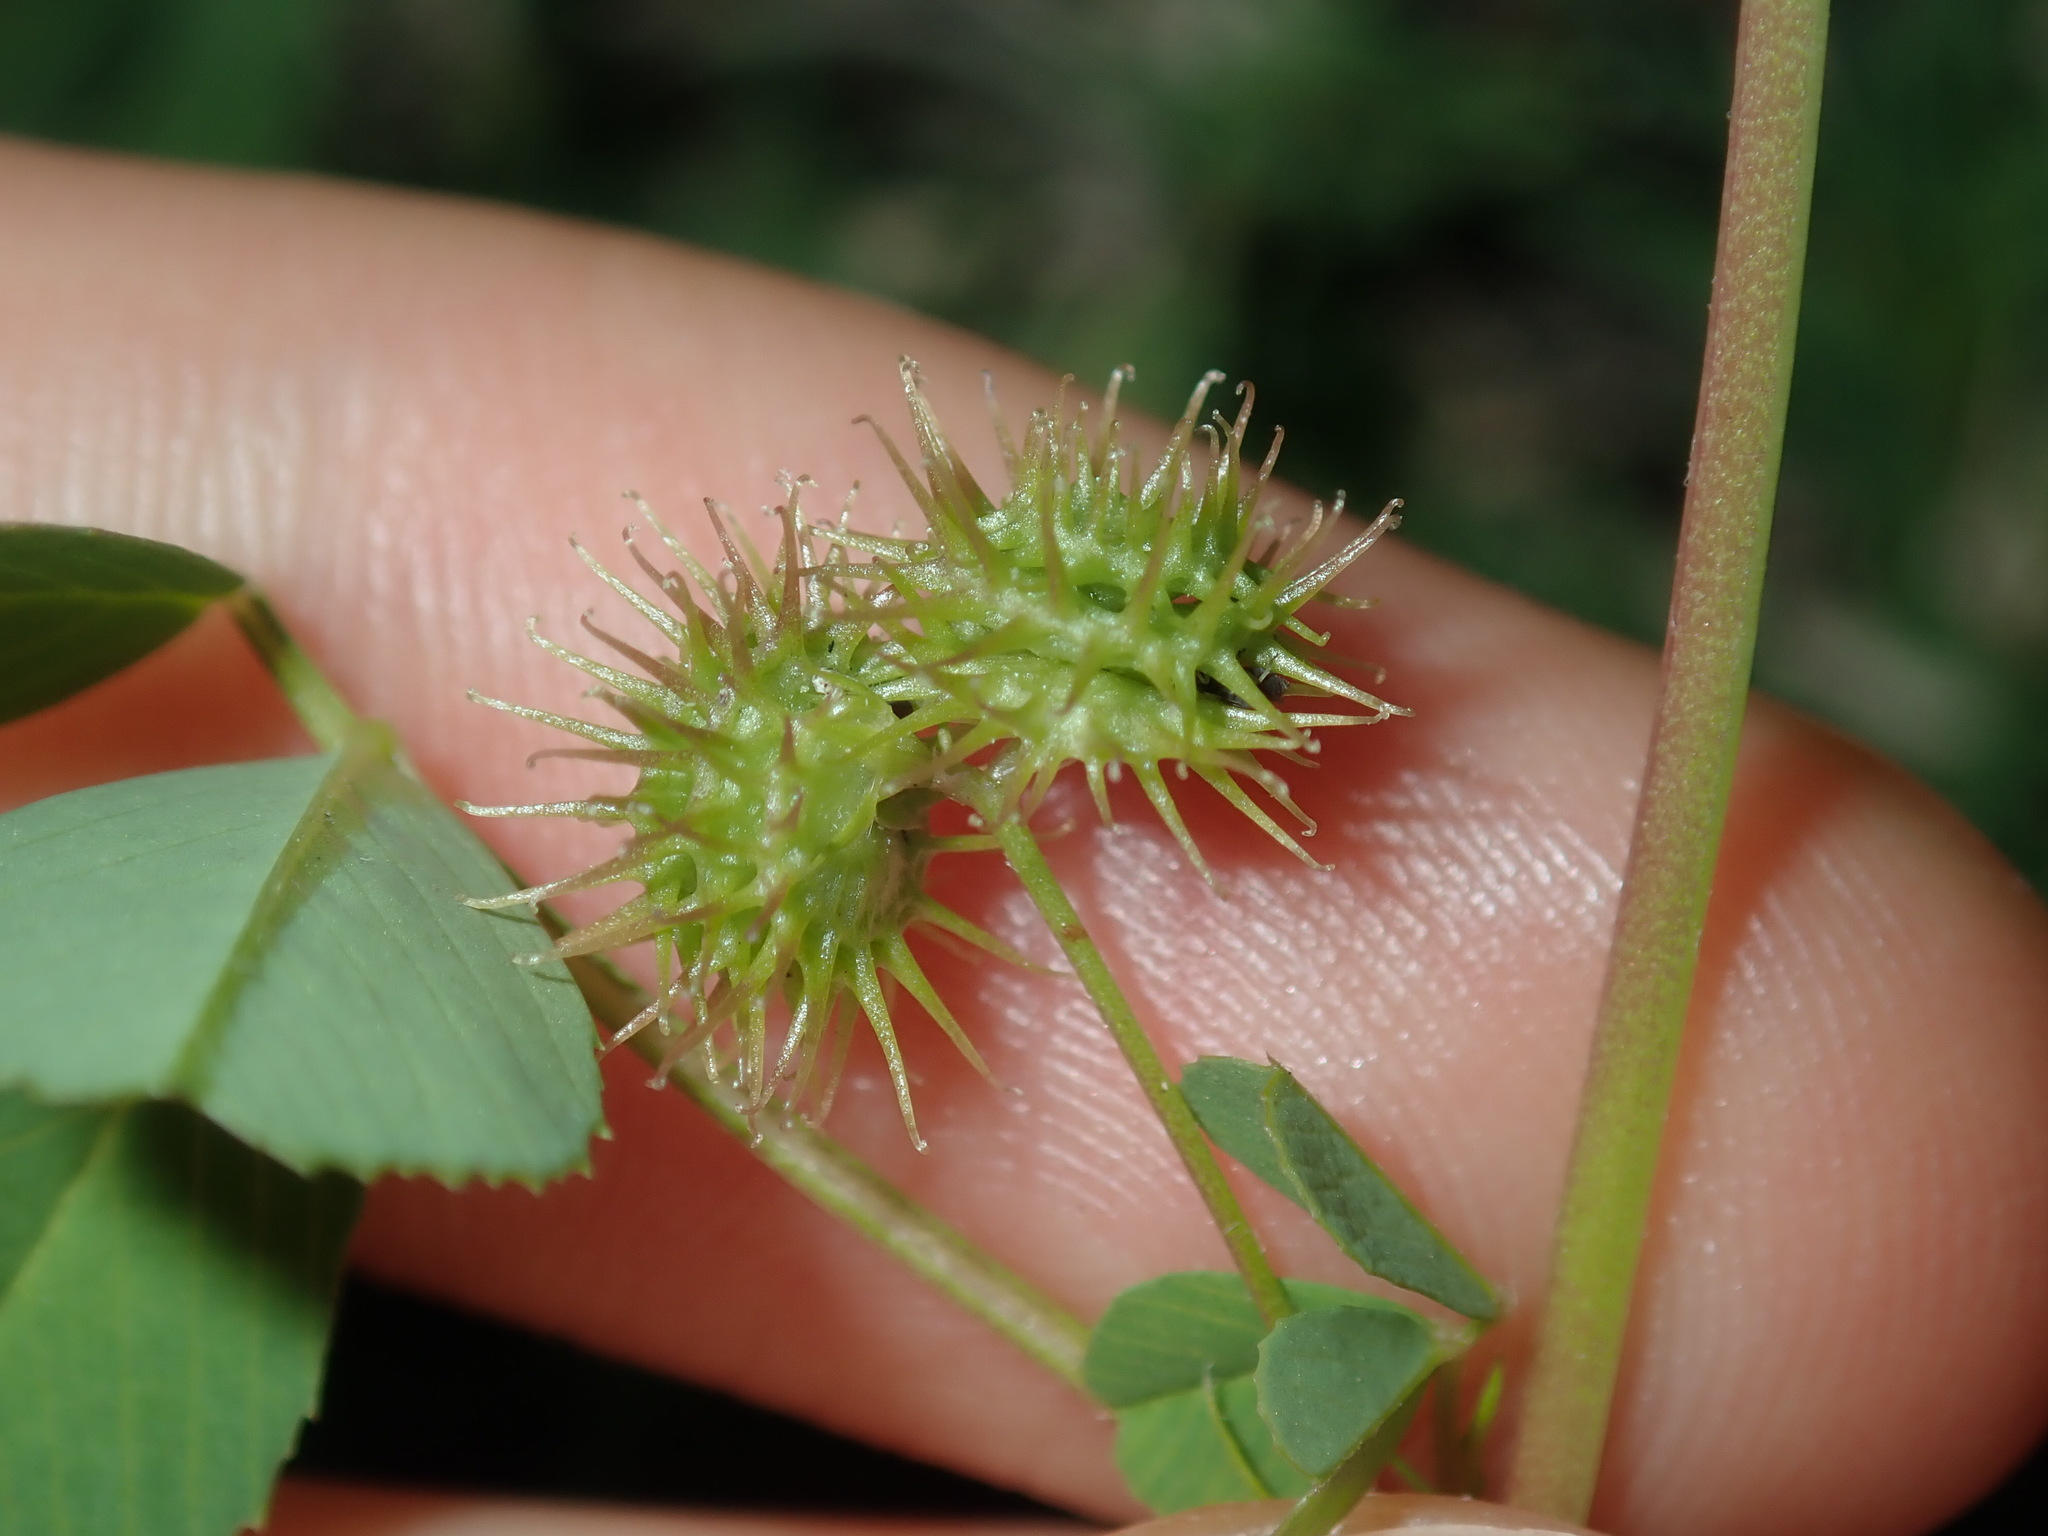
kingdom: Plantae
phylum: Tracheophyta
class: Magnoliopsida
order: Fabales
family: Fabaceae
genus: Medicago
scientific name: Medicago polymorpha
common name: Burclover
